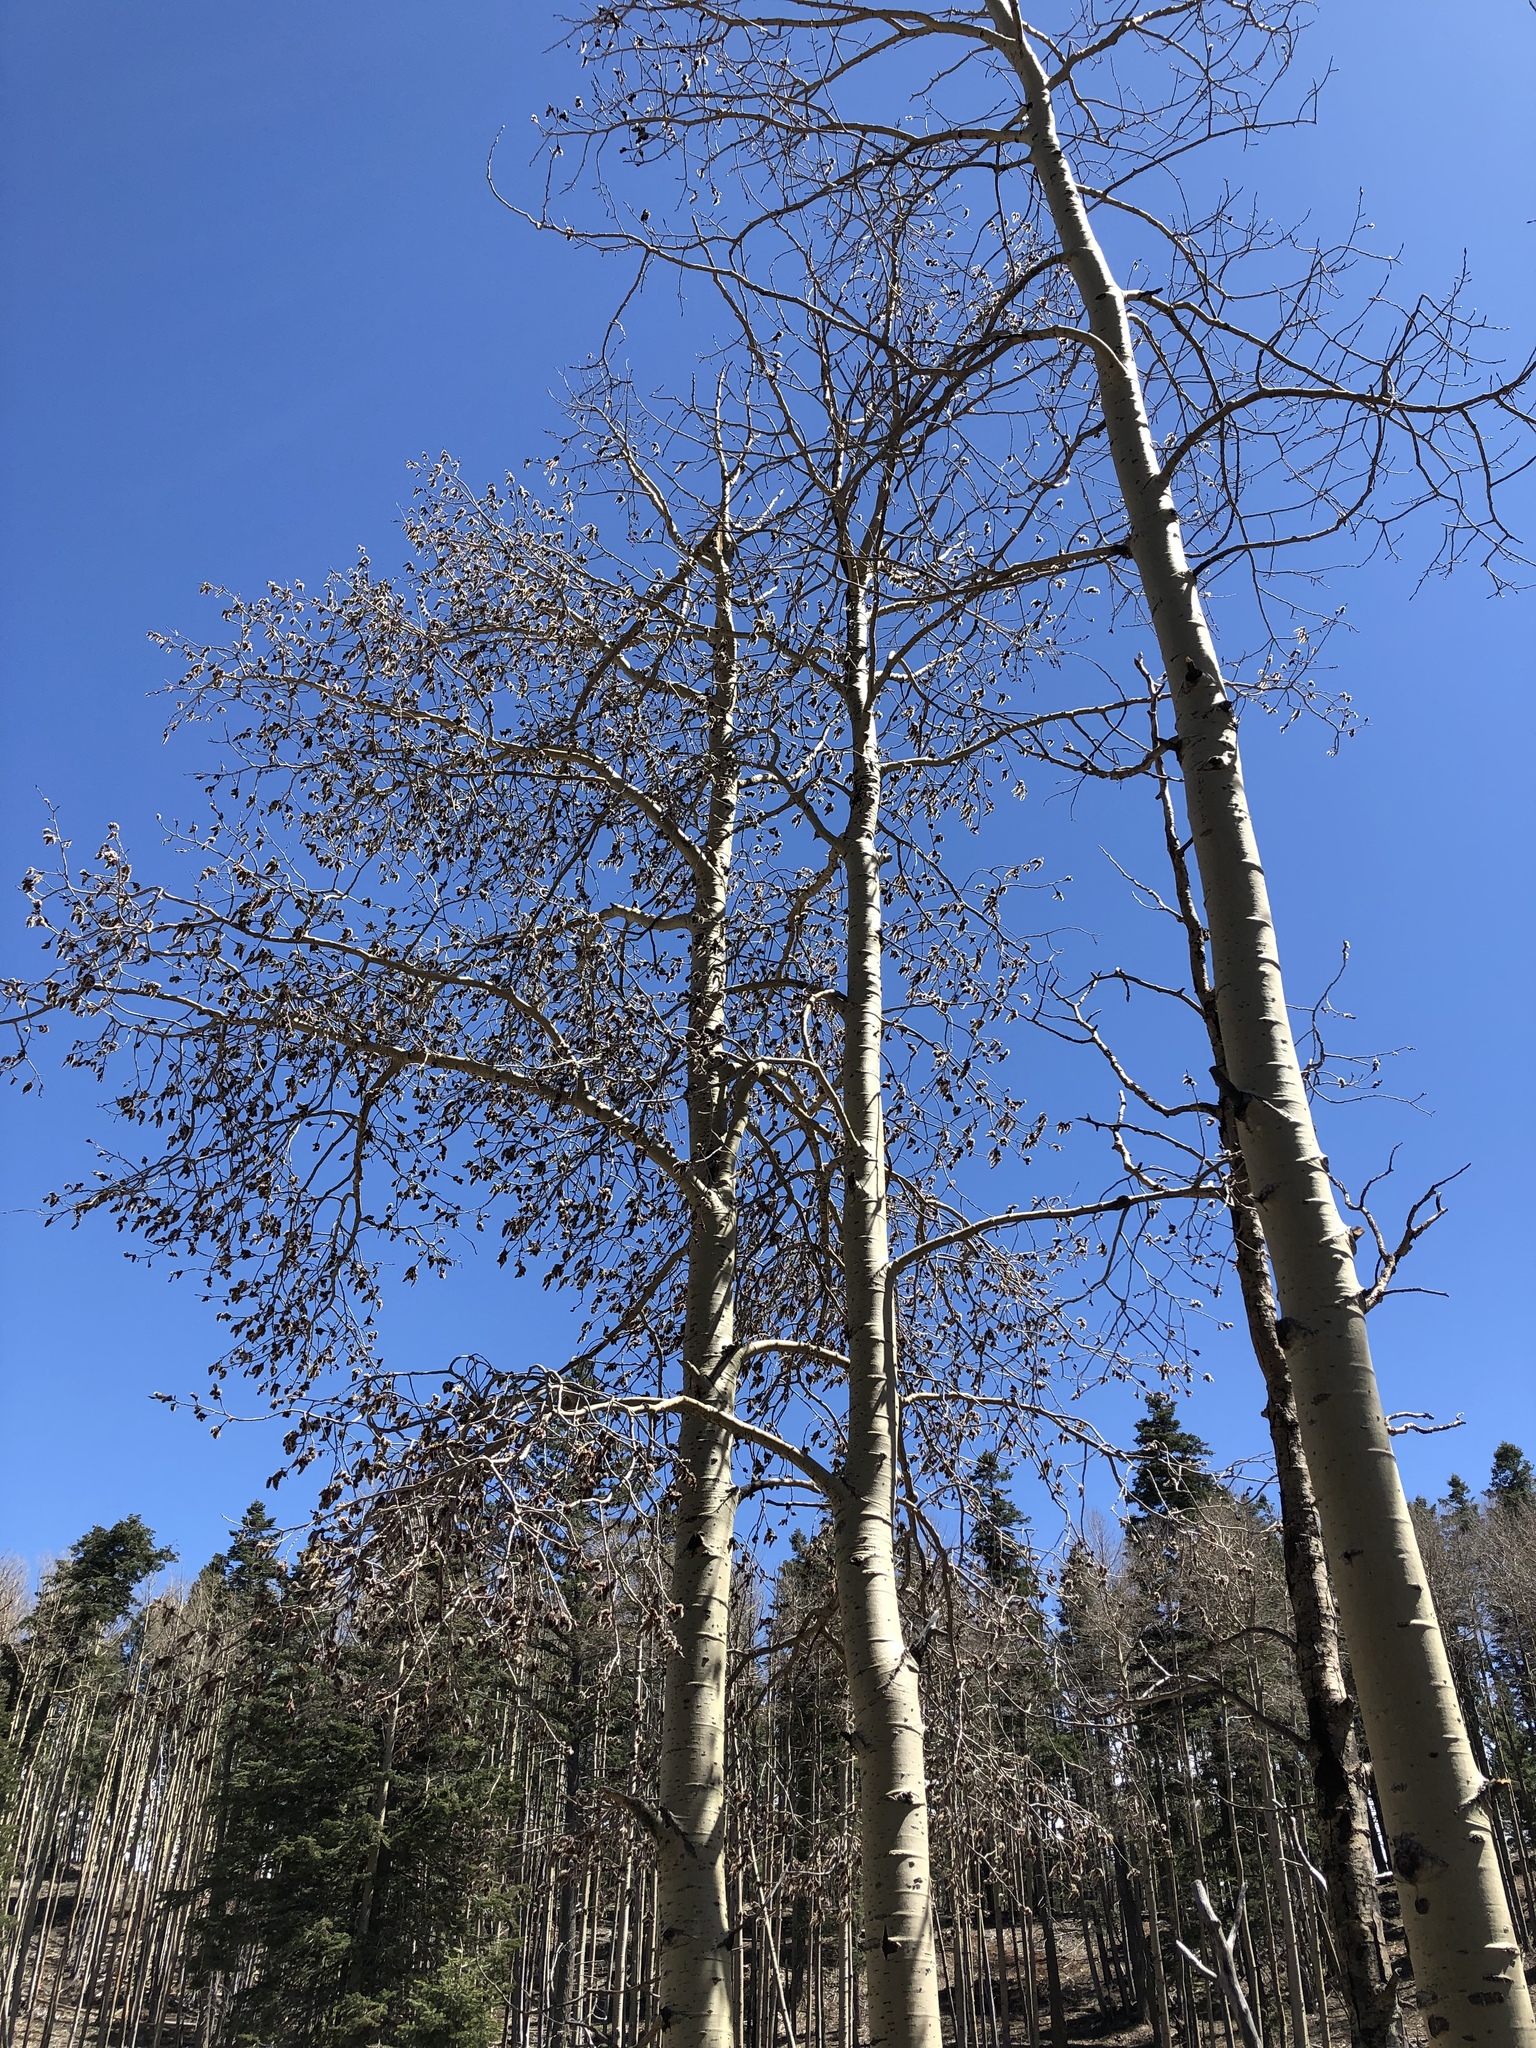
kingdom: Plantae
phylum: Tracheophyta
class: Magnoliopsida
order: Malpighiales
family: Salicaceae
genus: Populus
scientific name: Populus tremuloides
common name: Quaking aspen
